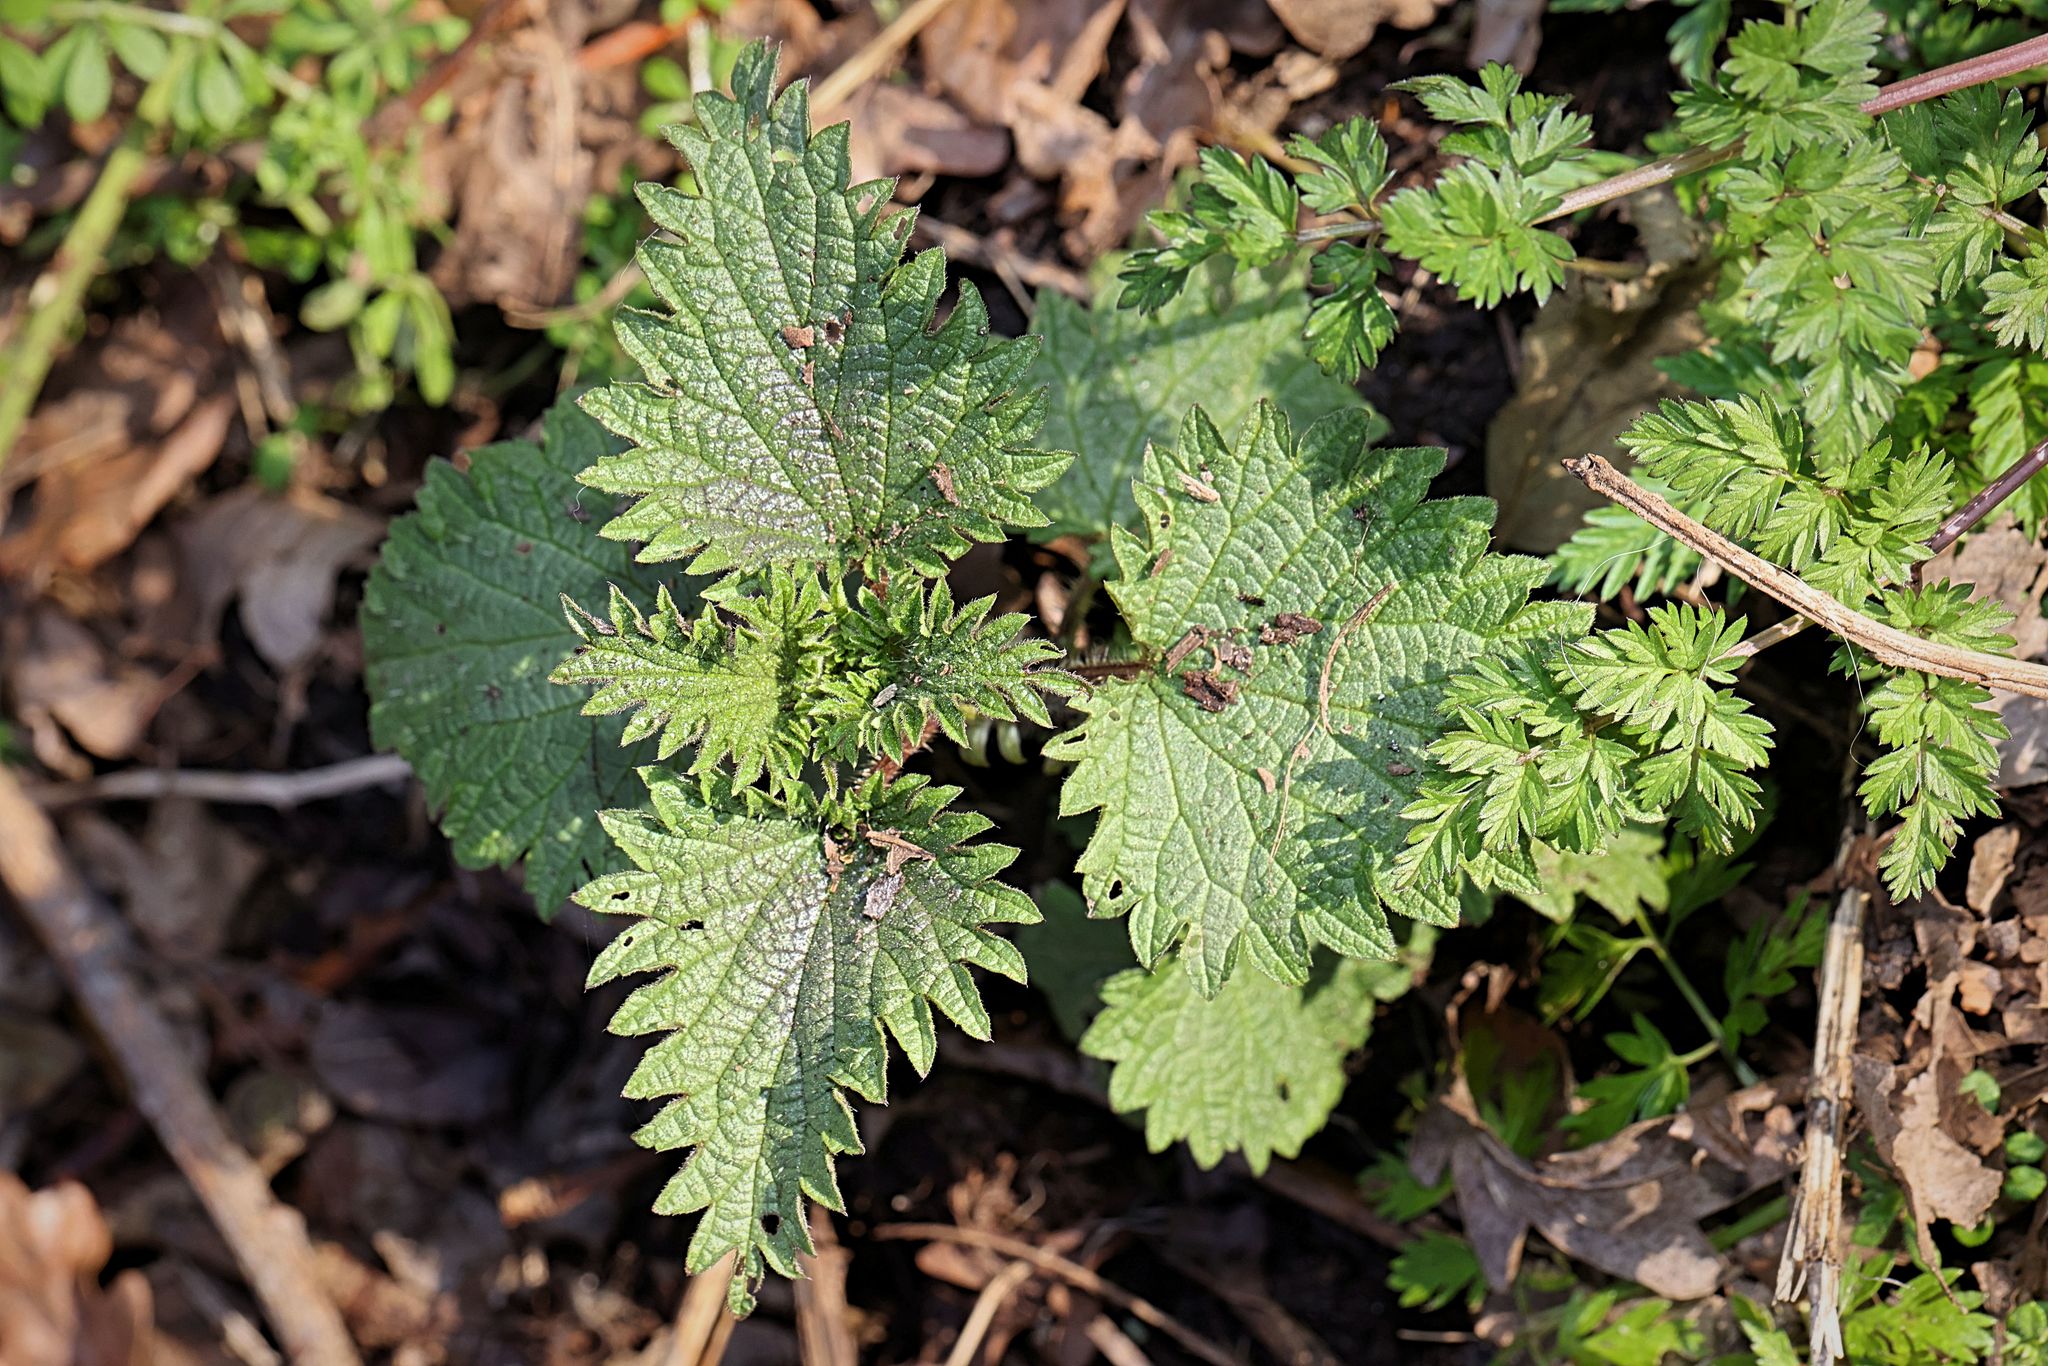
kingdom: Plantae
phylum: Tracheophyta
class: Magnoliopsida
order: Rosales
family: Urticaceae
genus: Urtica
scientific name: Urtica dioica
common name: Common nettle
